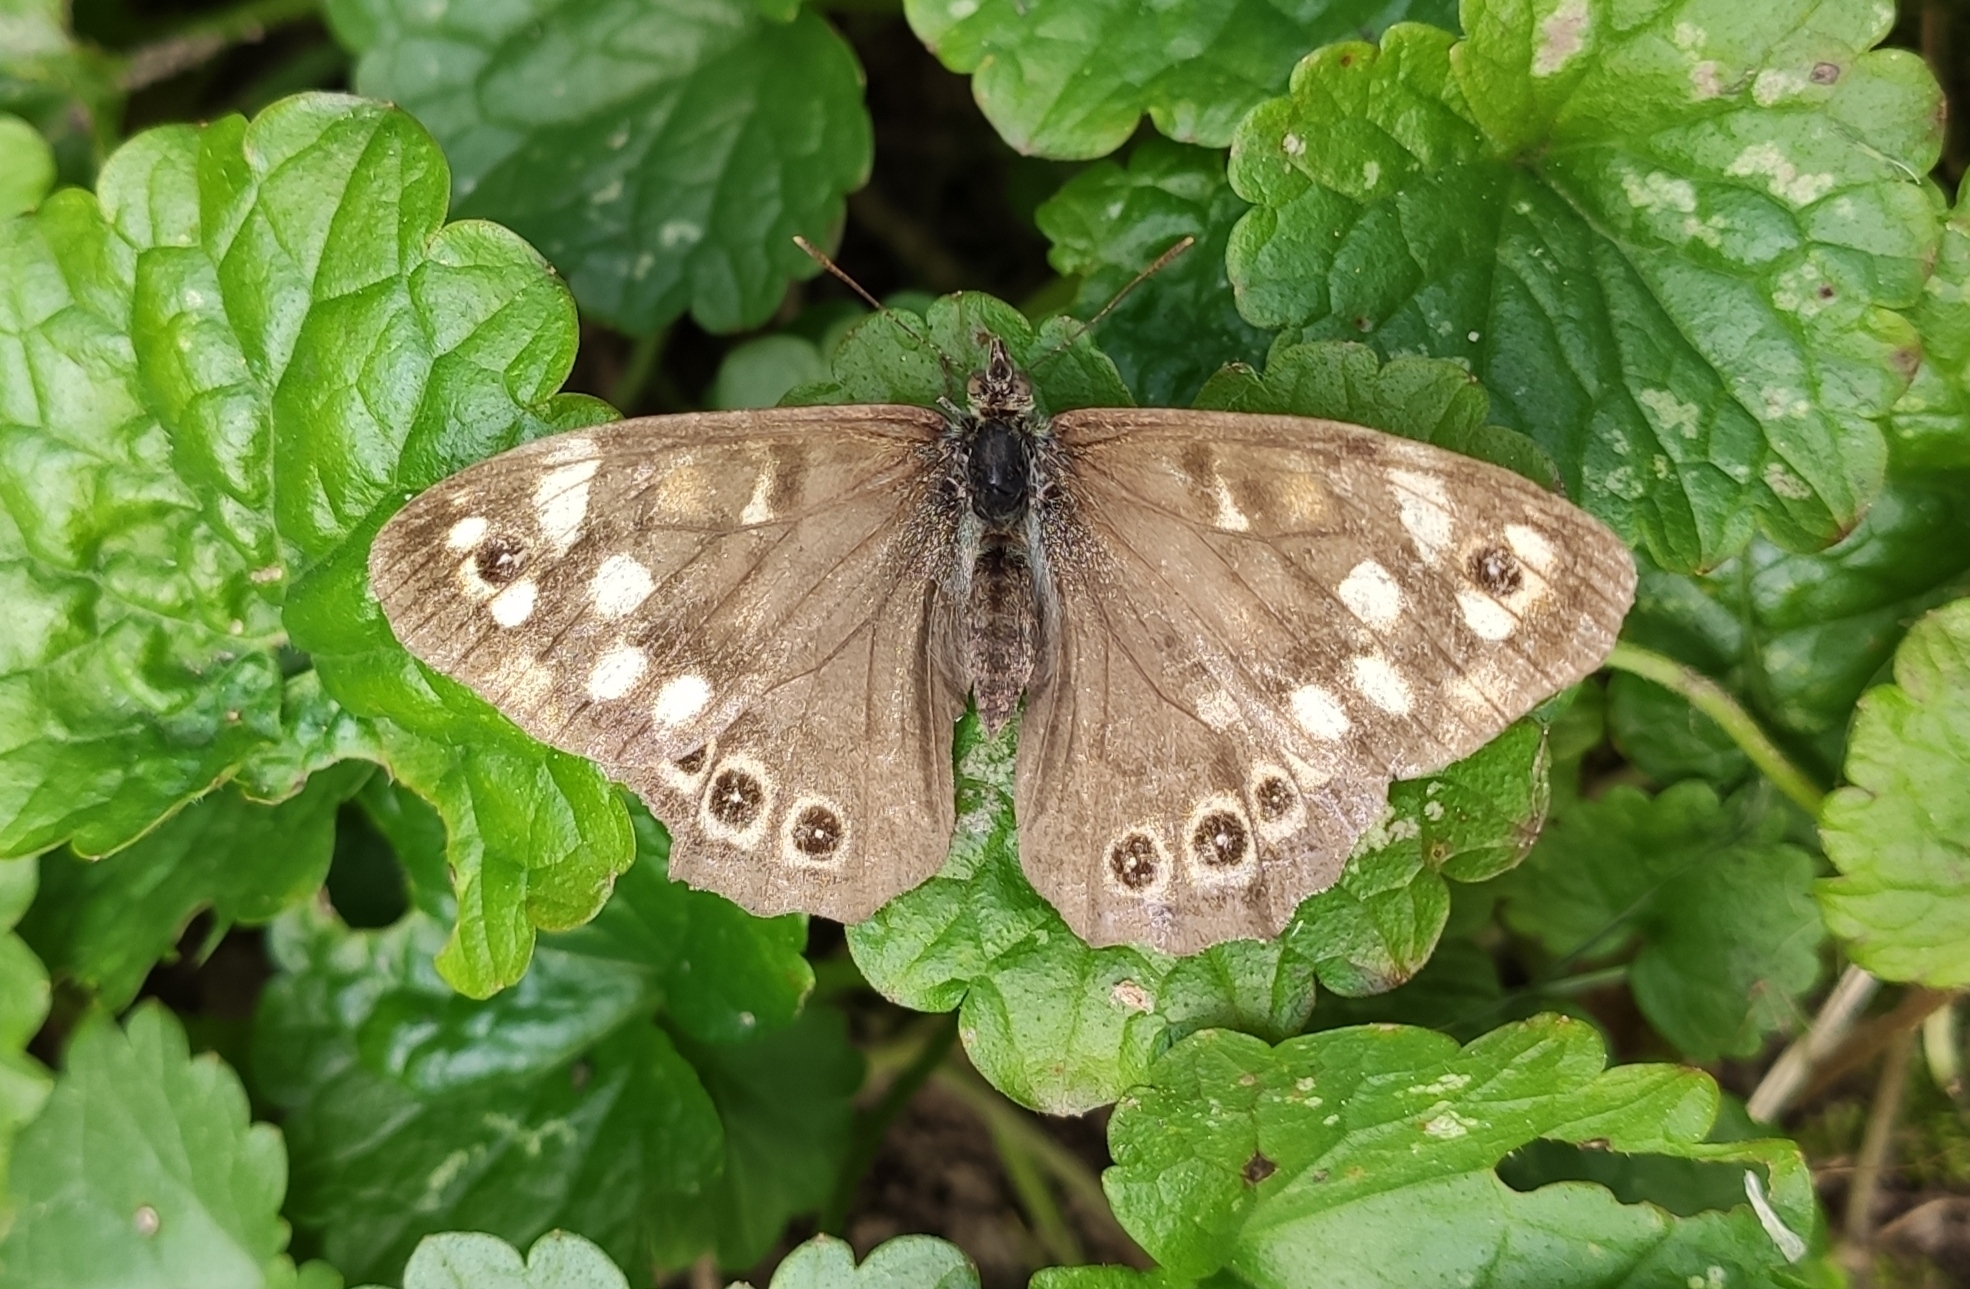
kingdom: Animalia
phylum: Arthropoda
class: Insecta
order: Lepidoptera
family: Nymphalidae
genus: Pararge
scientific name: Pararge aegeria
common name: Speckled wood
